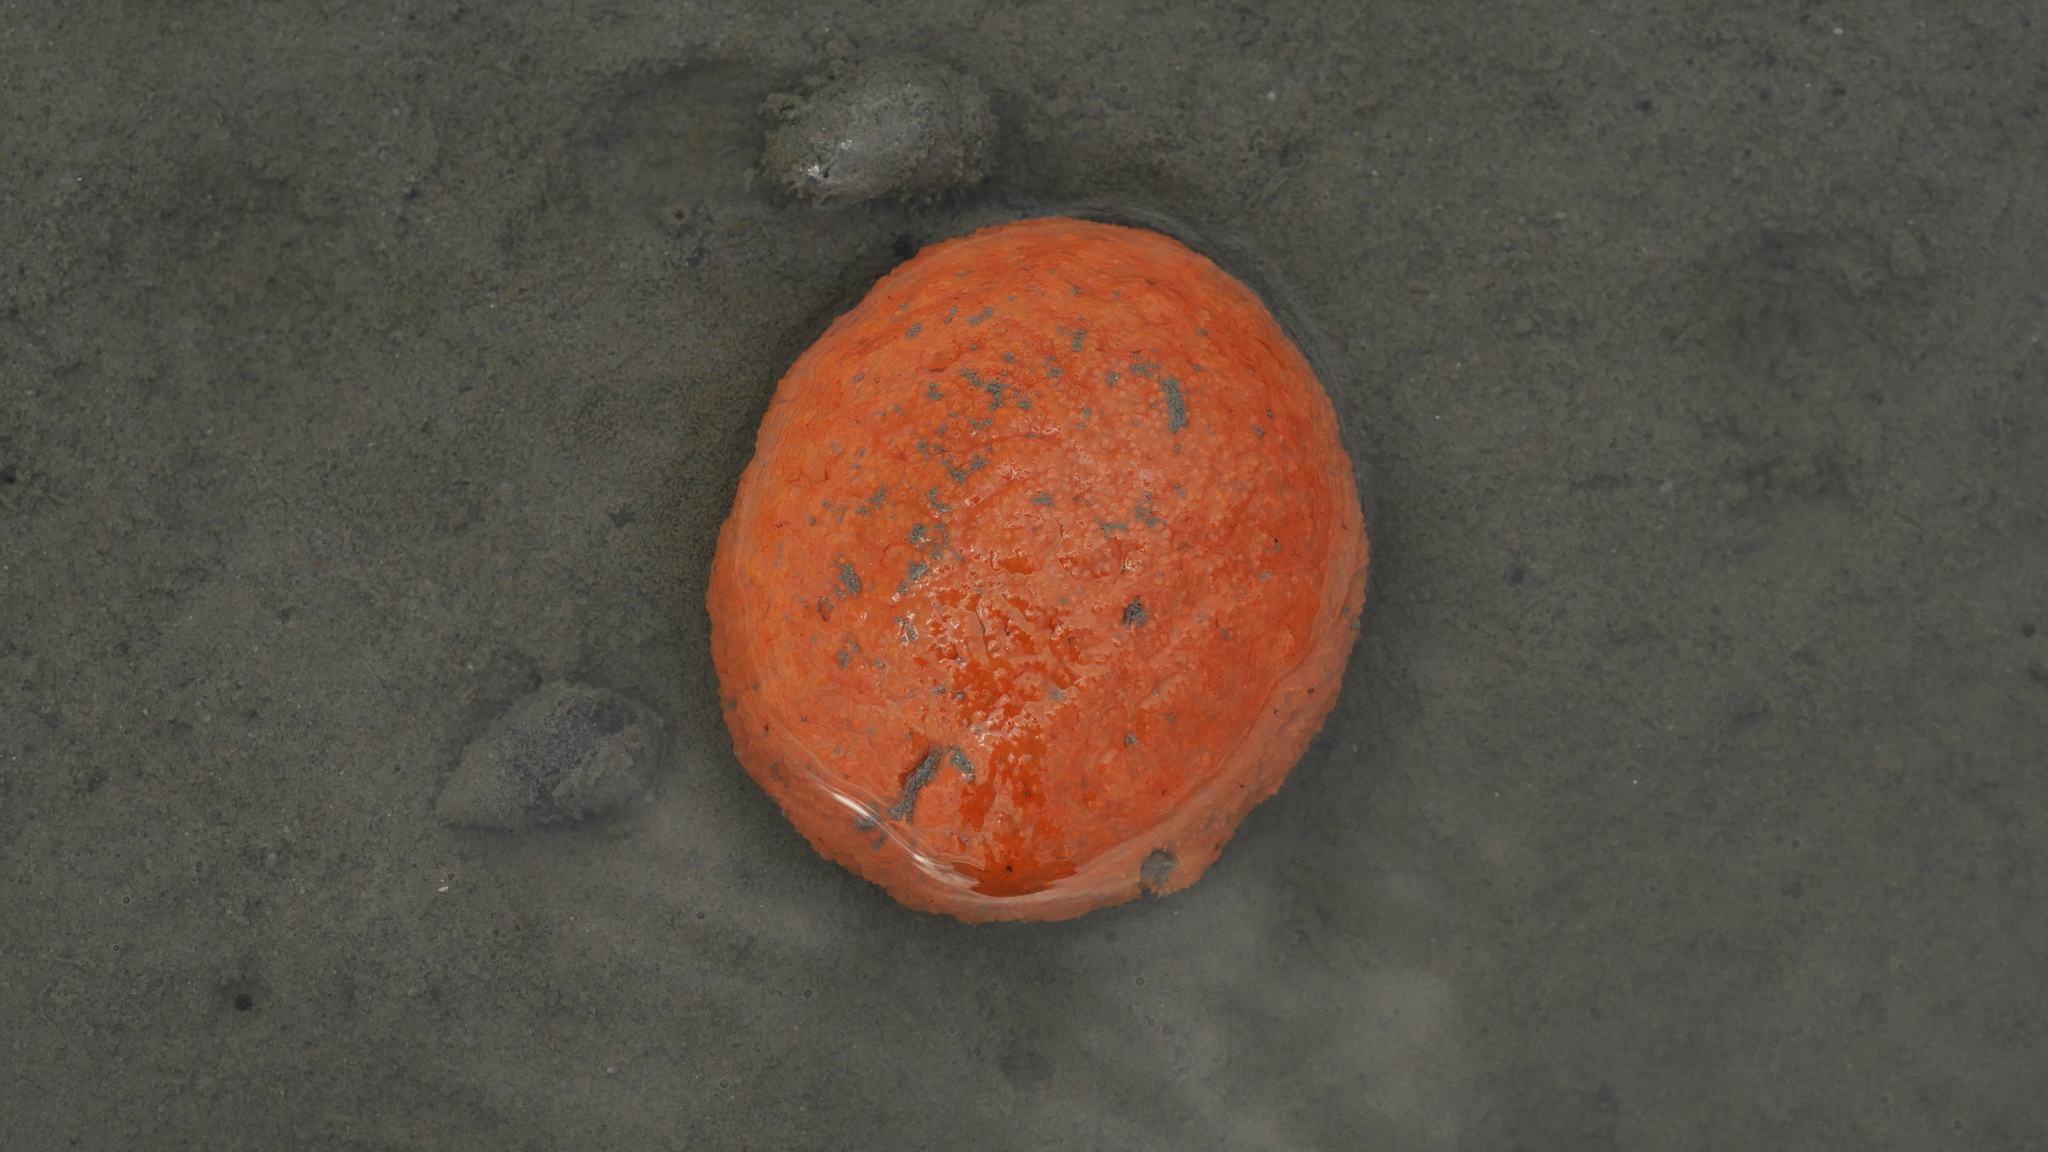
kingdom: Animalia
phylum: Chordata
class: Ascidiacea
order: Aplousobranchia
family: Polyclinidae
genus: Aplidium
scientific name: Aplidium stellatum
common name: Atlantic sea pork
